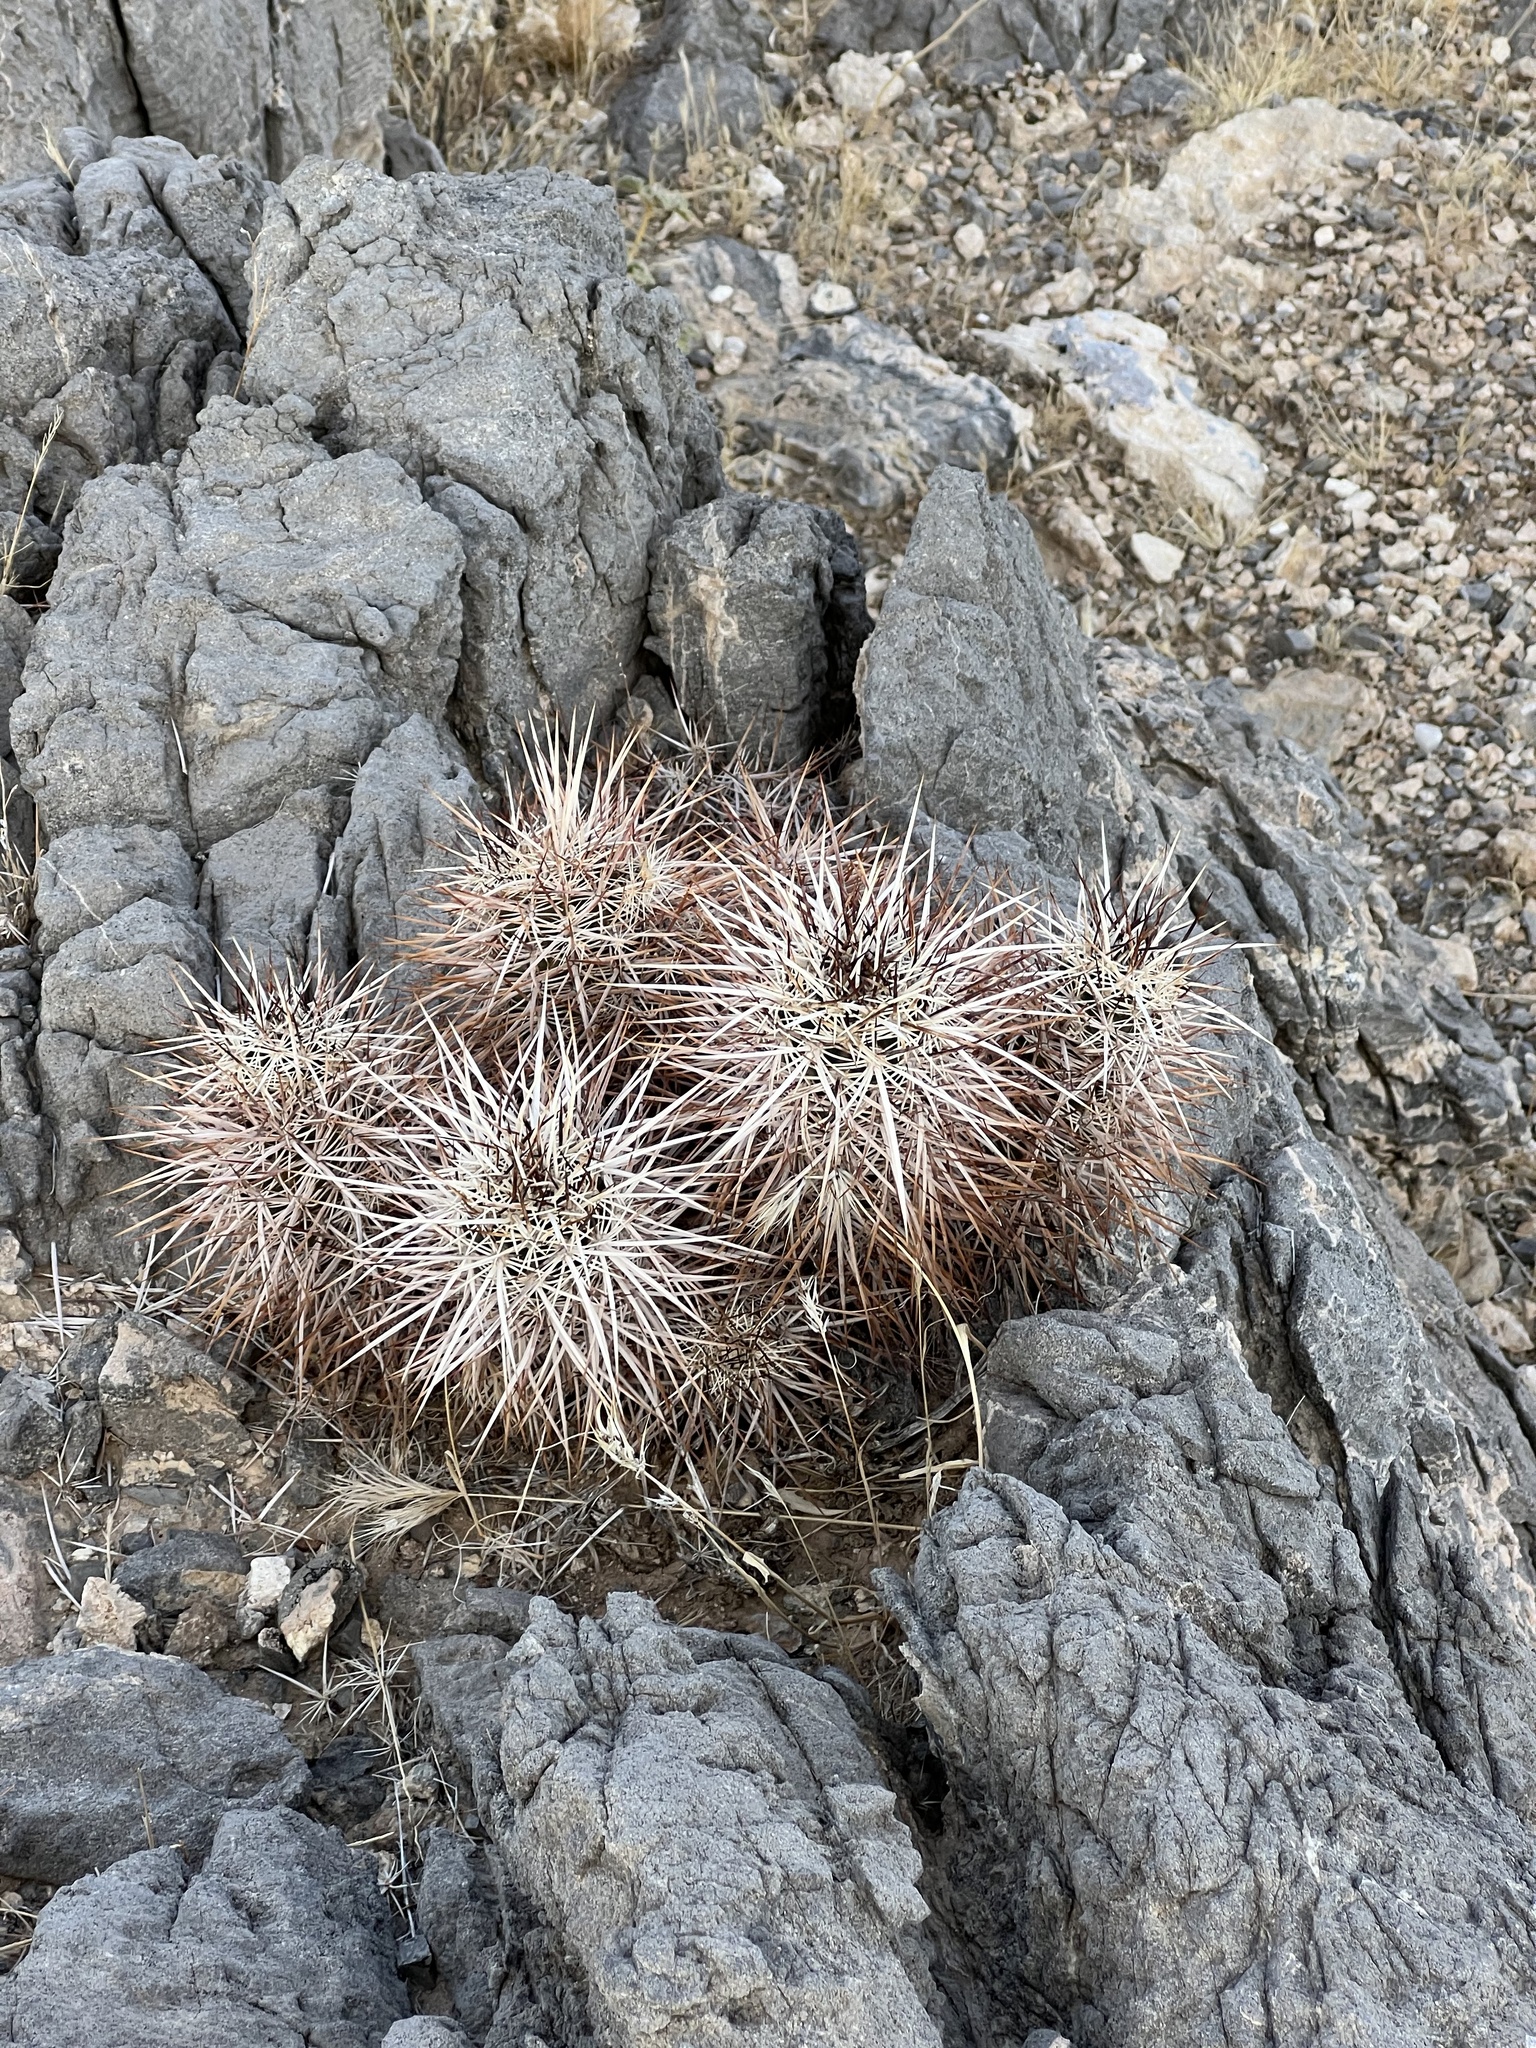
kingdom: Plantae
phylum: Tracheophyta
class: Magnoliopsida
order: Caryophyllales
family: Cactaceae
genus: Echinocereus
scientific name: Echinocereus engelmannii
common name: Engelmann's hedgehog cactus
